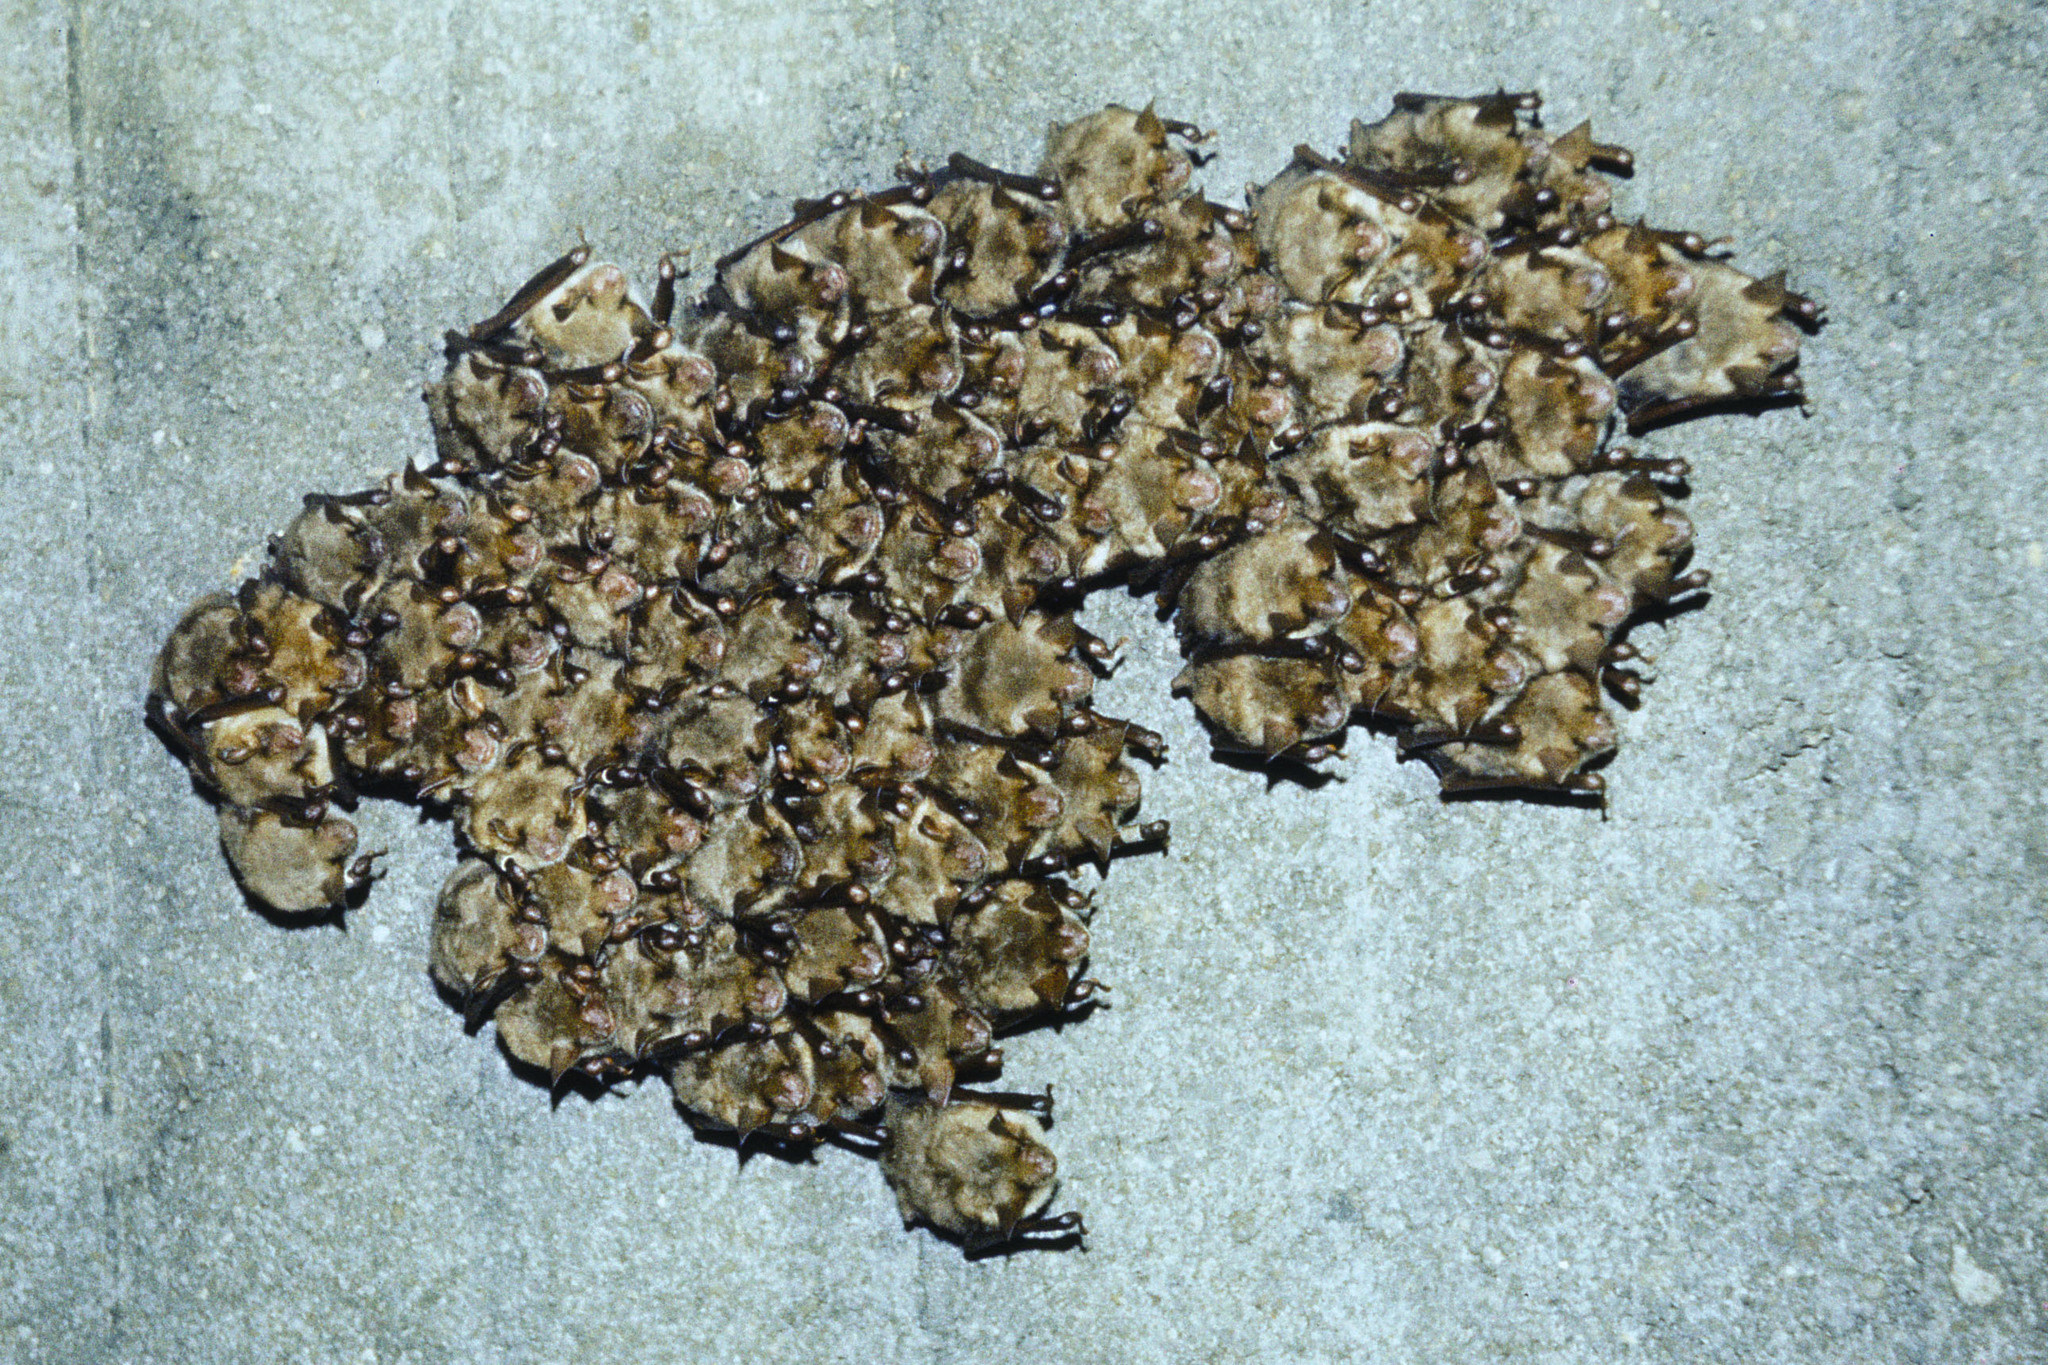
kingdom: Animalia
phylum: Chordata
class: Mammalia
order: Chiroptera
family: Vespertilionidae
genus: Myotis
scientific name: Myotis myotis
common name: Greater mouse-eared bat
